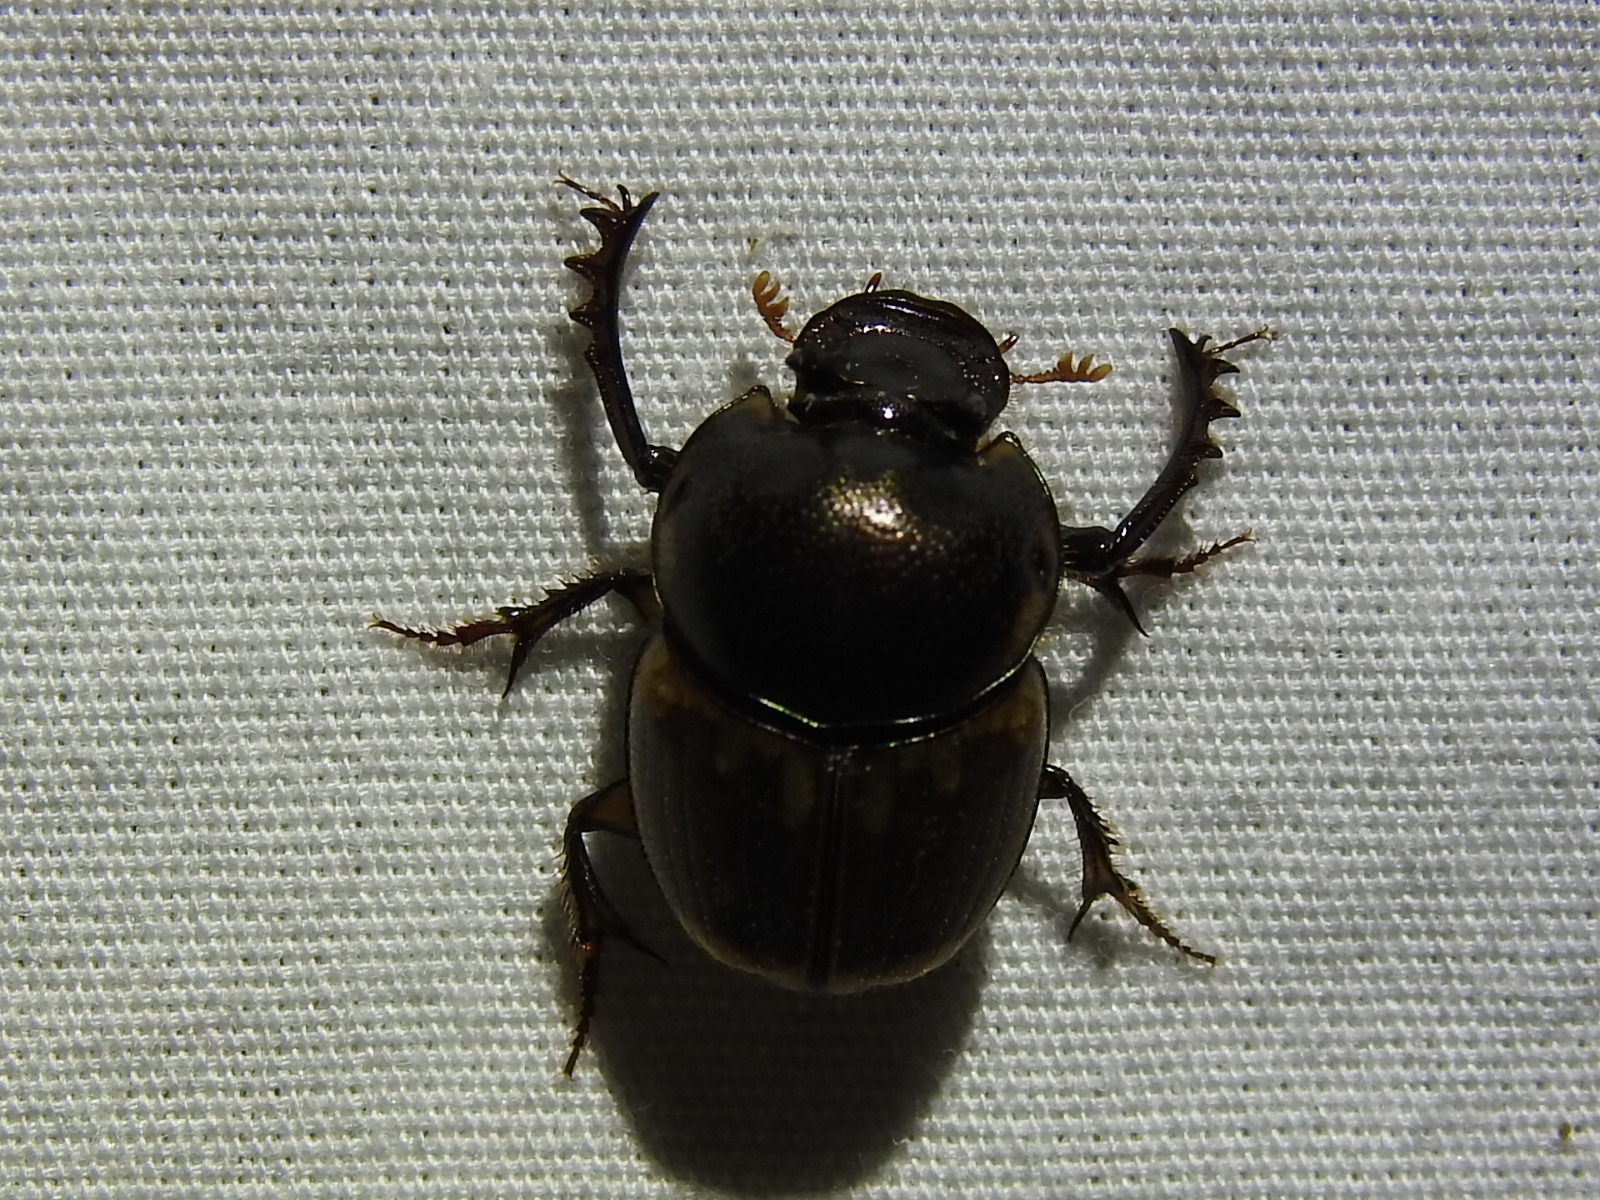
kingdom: Animalia
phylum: Arthropoda
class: Insecta
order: Coleoptera
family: Scarabaeidae
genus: Digitonthophagus
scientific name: Digitonthophagus gazella
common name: Brown dung beetle
